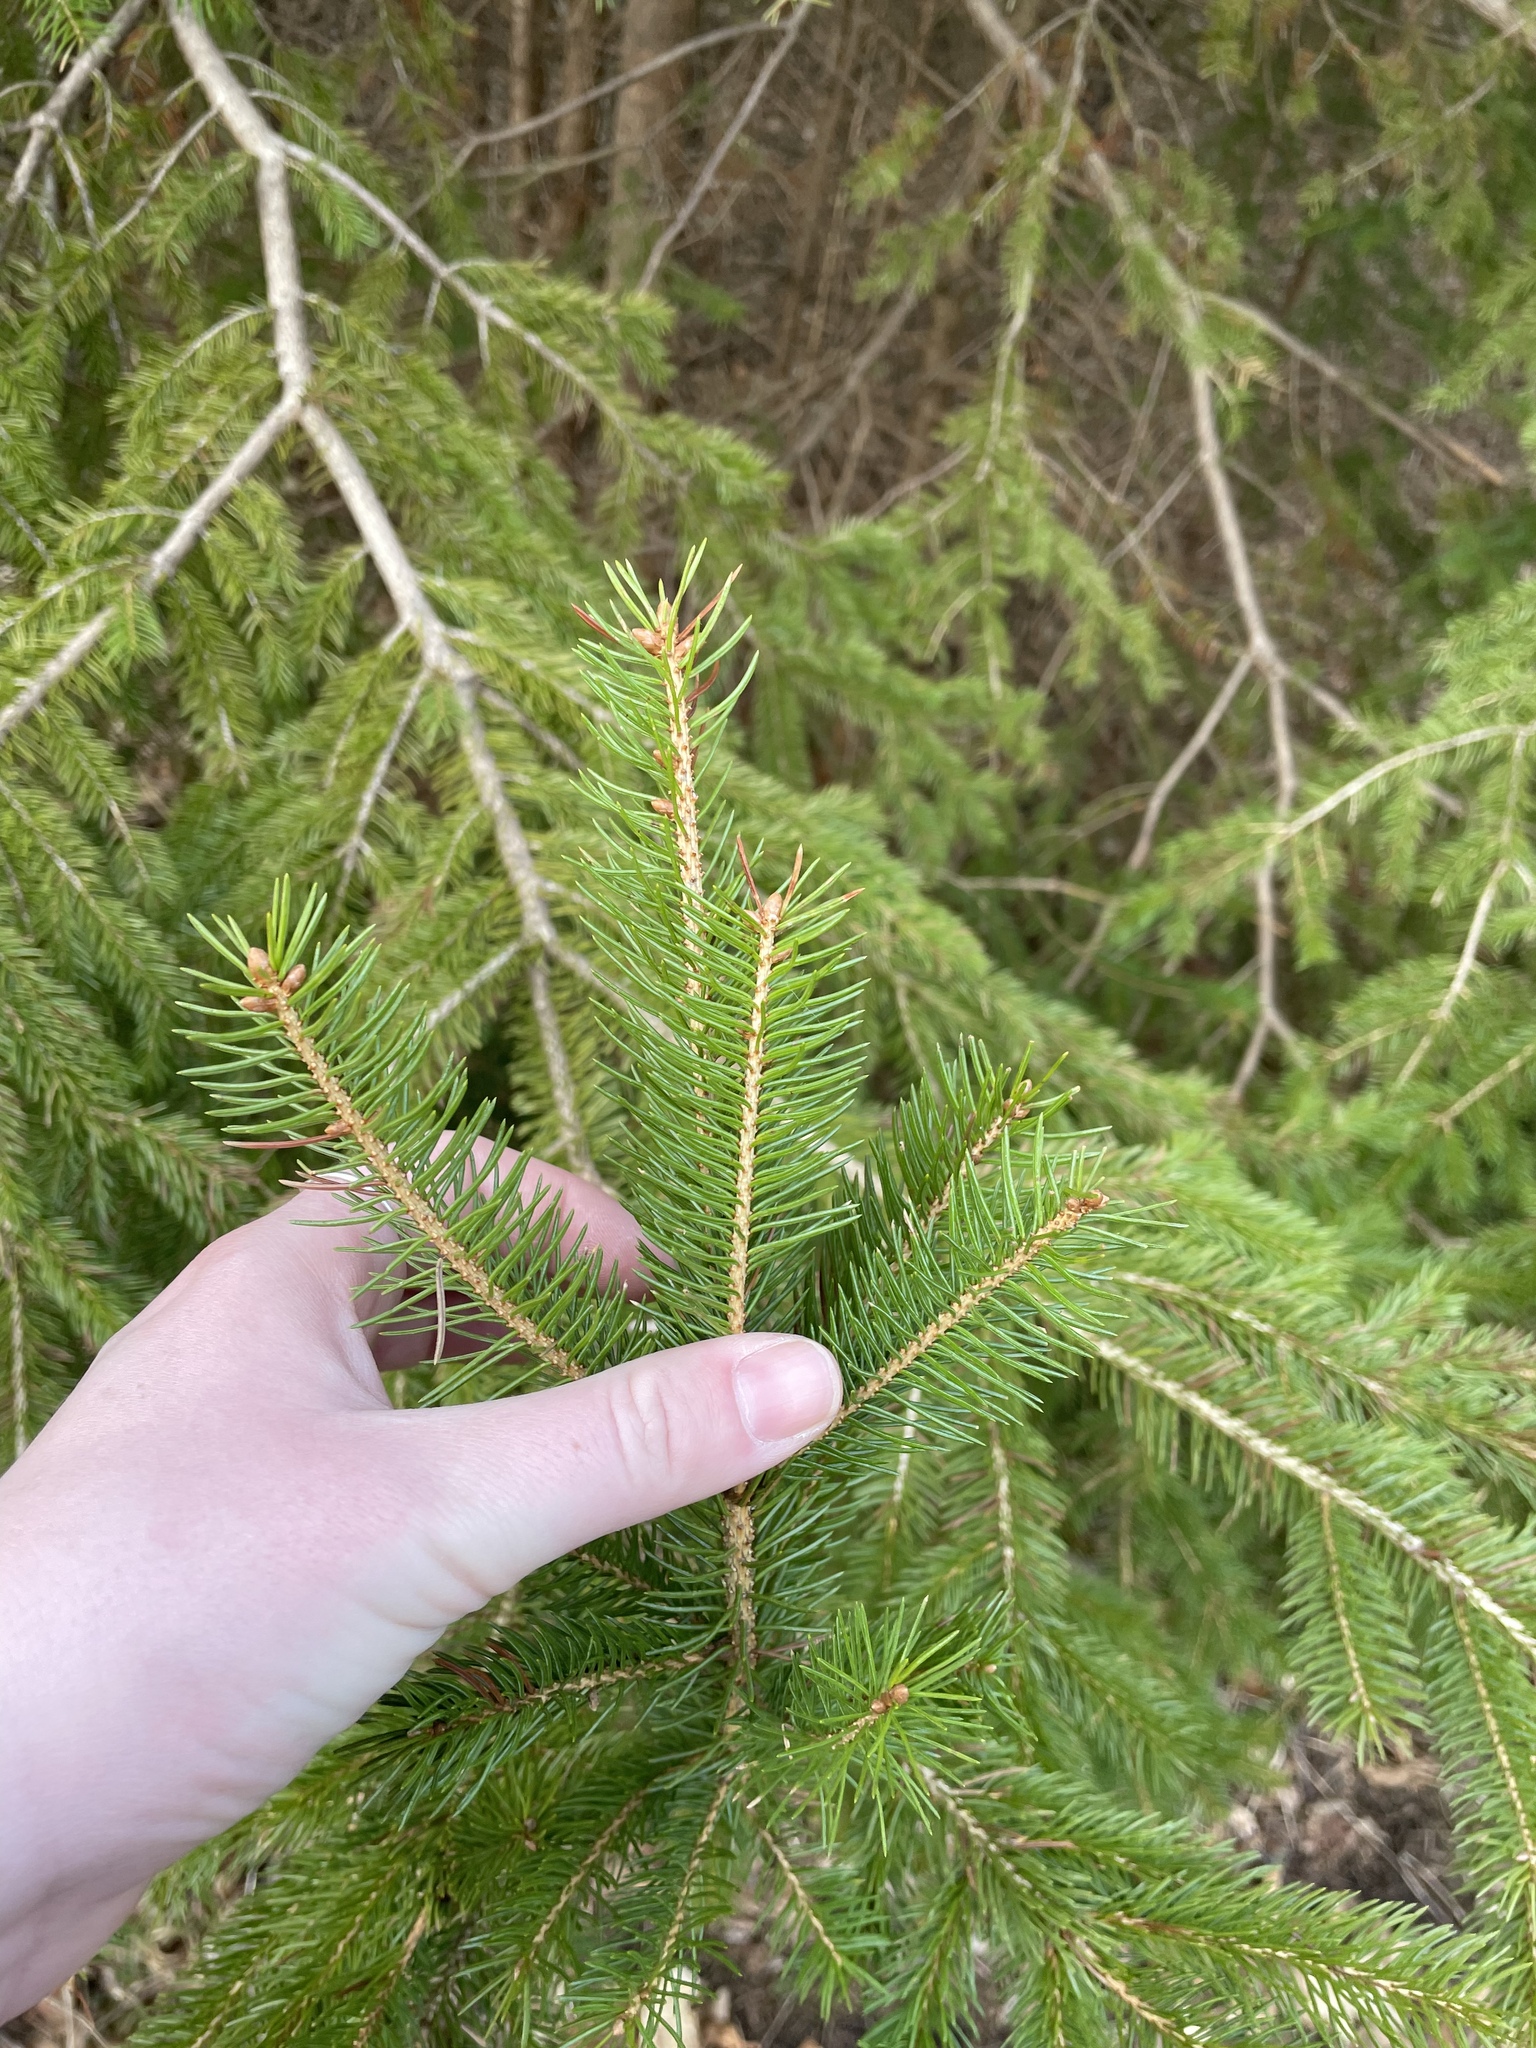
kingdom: Plantae
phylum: Tracheophyta
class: Pinopsida
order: Pinales
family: Pinaceae
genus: Picea
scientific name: Picea glauca
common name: White spruce
